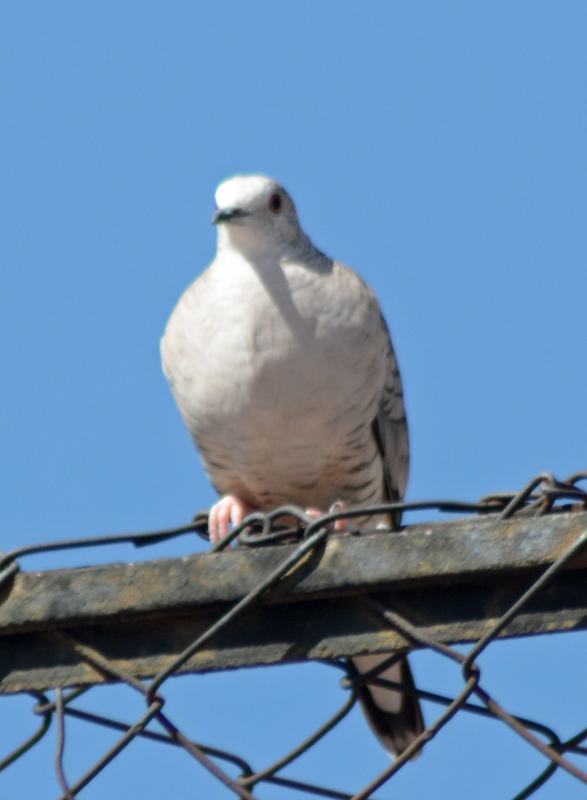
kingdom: Animalia
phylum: Chordata
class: Aves
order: Columbiformes
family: Columbidae
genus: Columbina
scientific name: Columbina inca
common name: Inca dove
